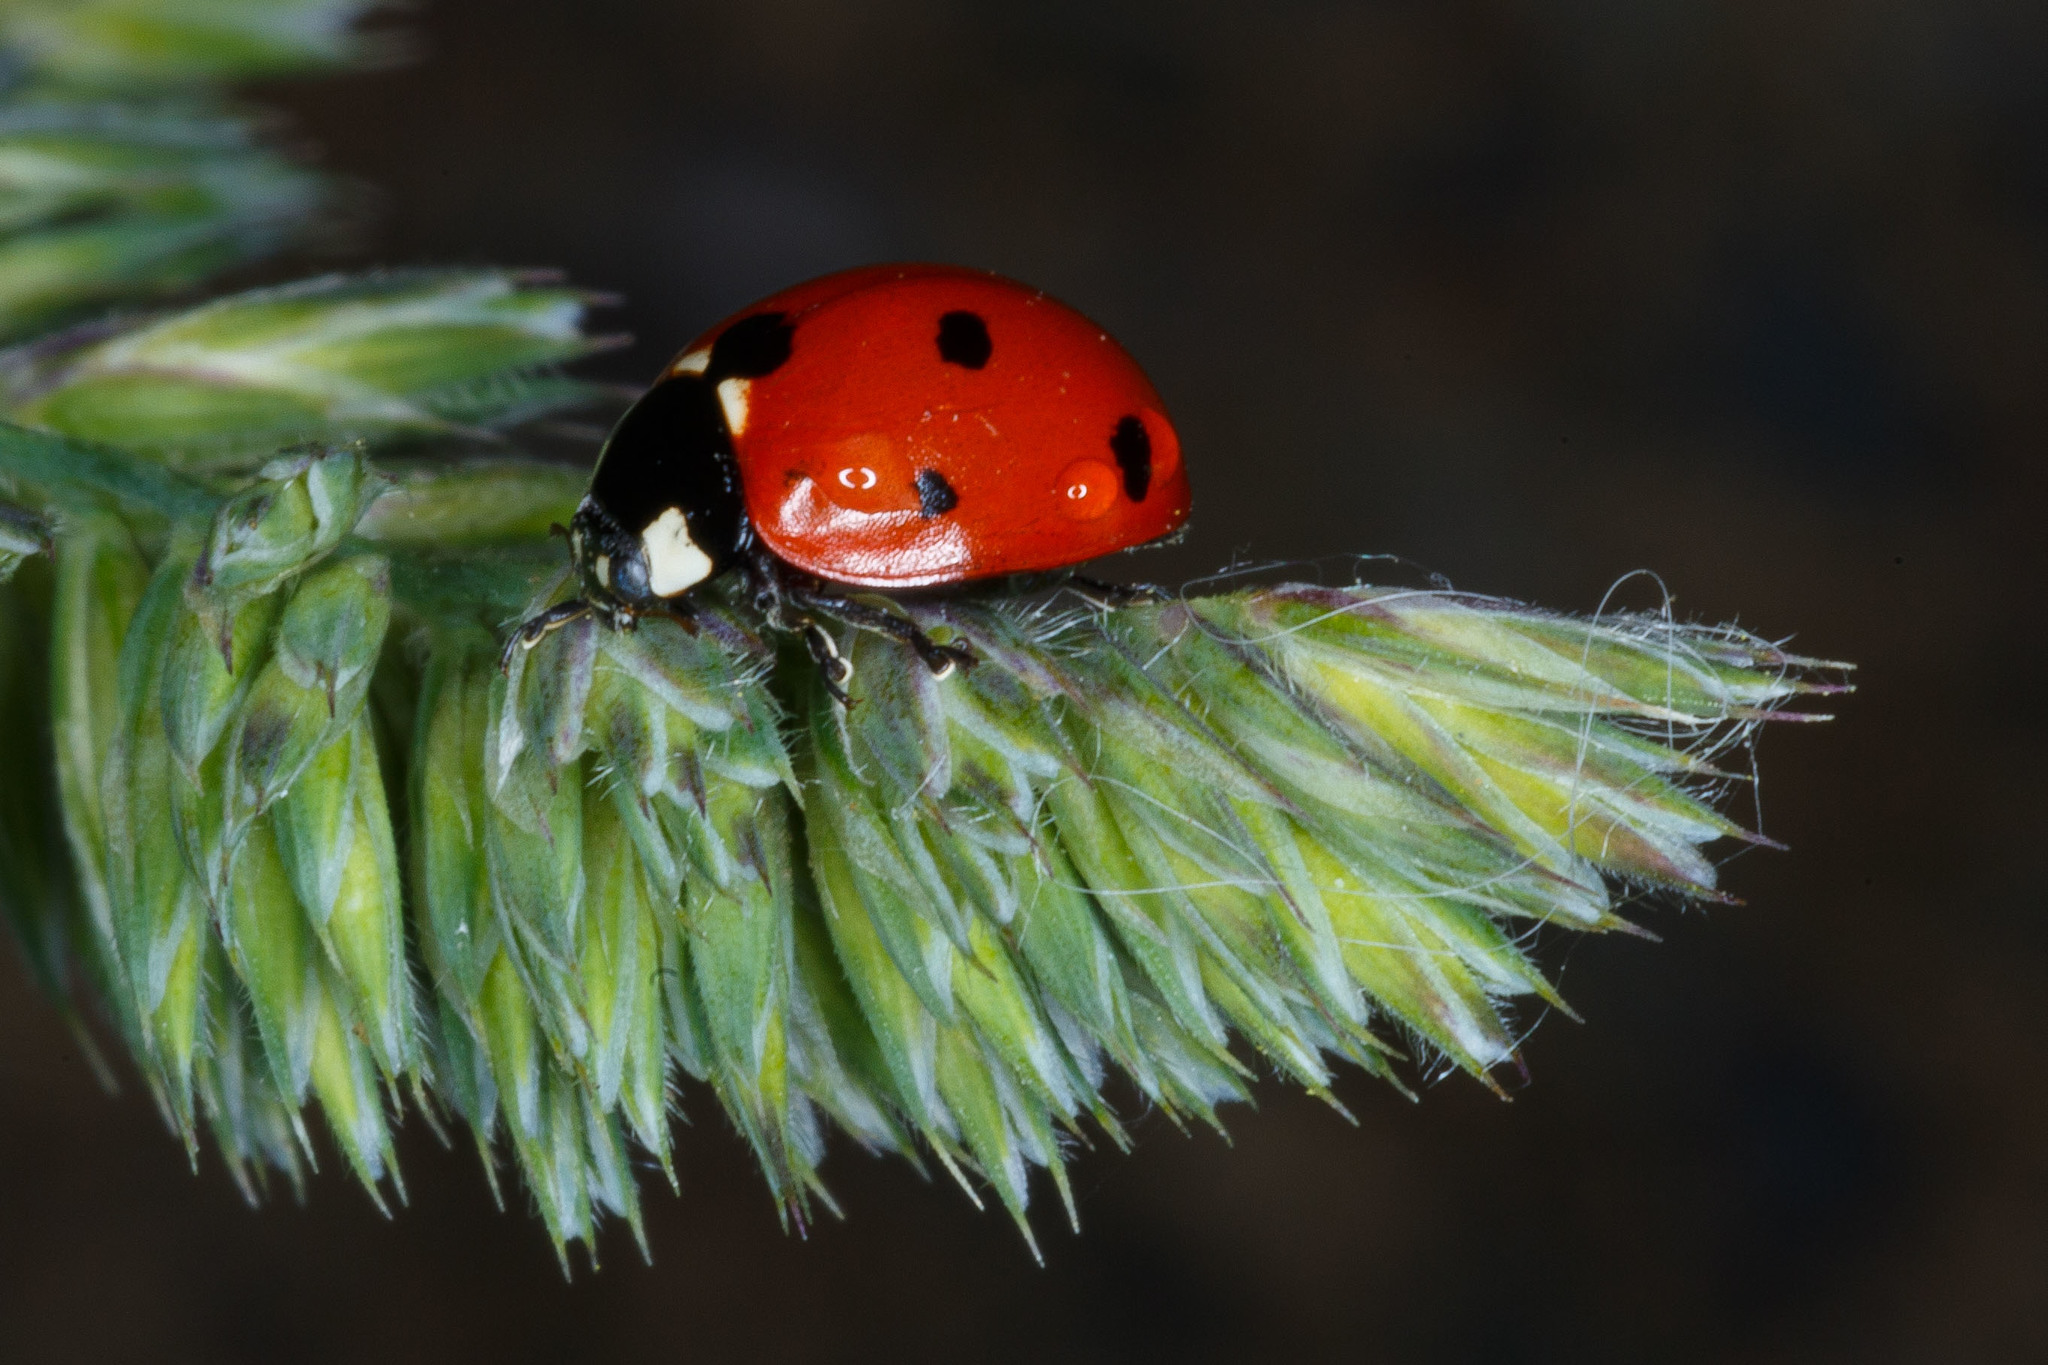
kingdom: Animalia
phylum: Arthropoda
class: Insecta
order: Coleoptera
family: Coccinellidae
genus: Coccinella
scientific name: Coccinella septempunctata
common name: Sevenspotted lady beetle
